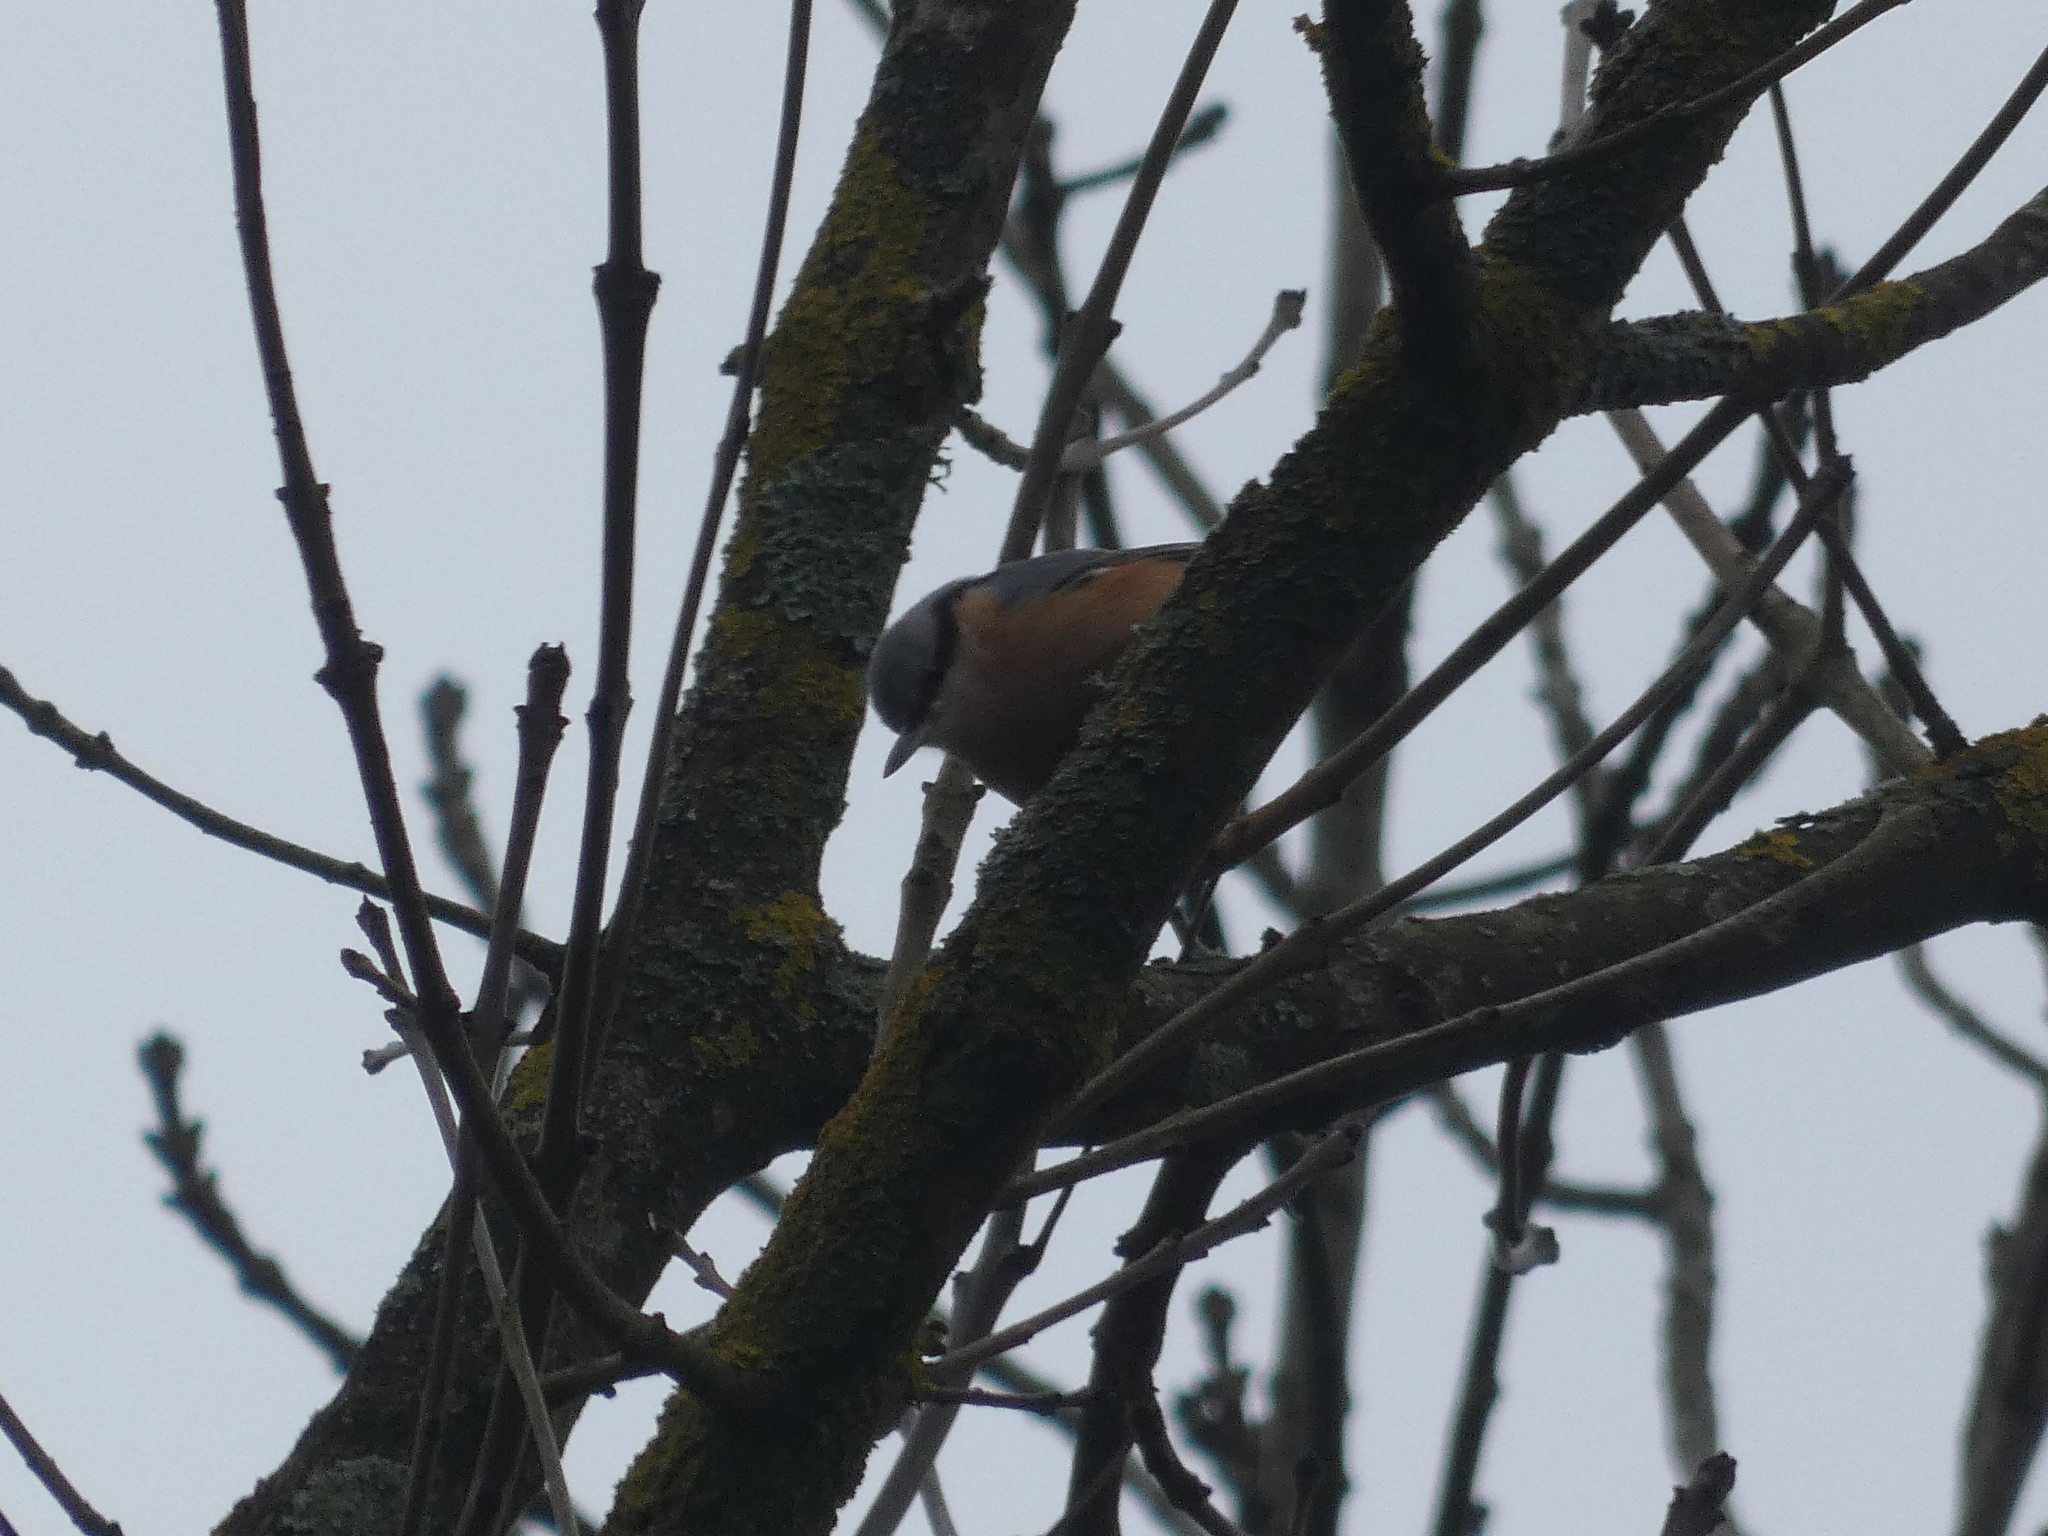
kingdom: Animalia
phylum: Chordata
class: Aves
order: Passeriformes
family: Sittidae
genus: Sitta
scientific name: Sitta europaea
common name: Eurasian nuthatch
